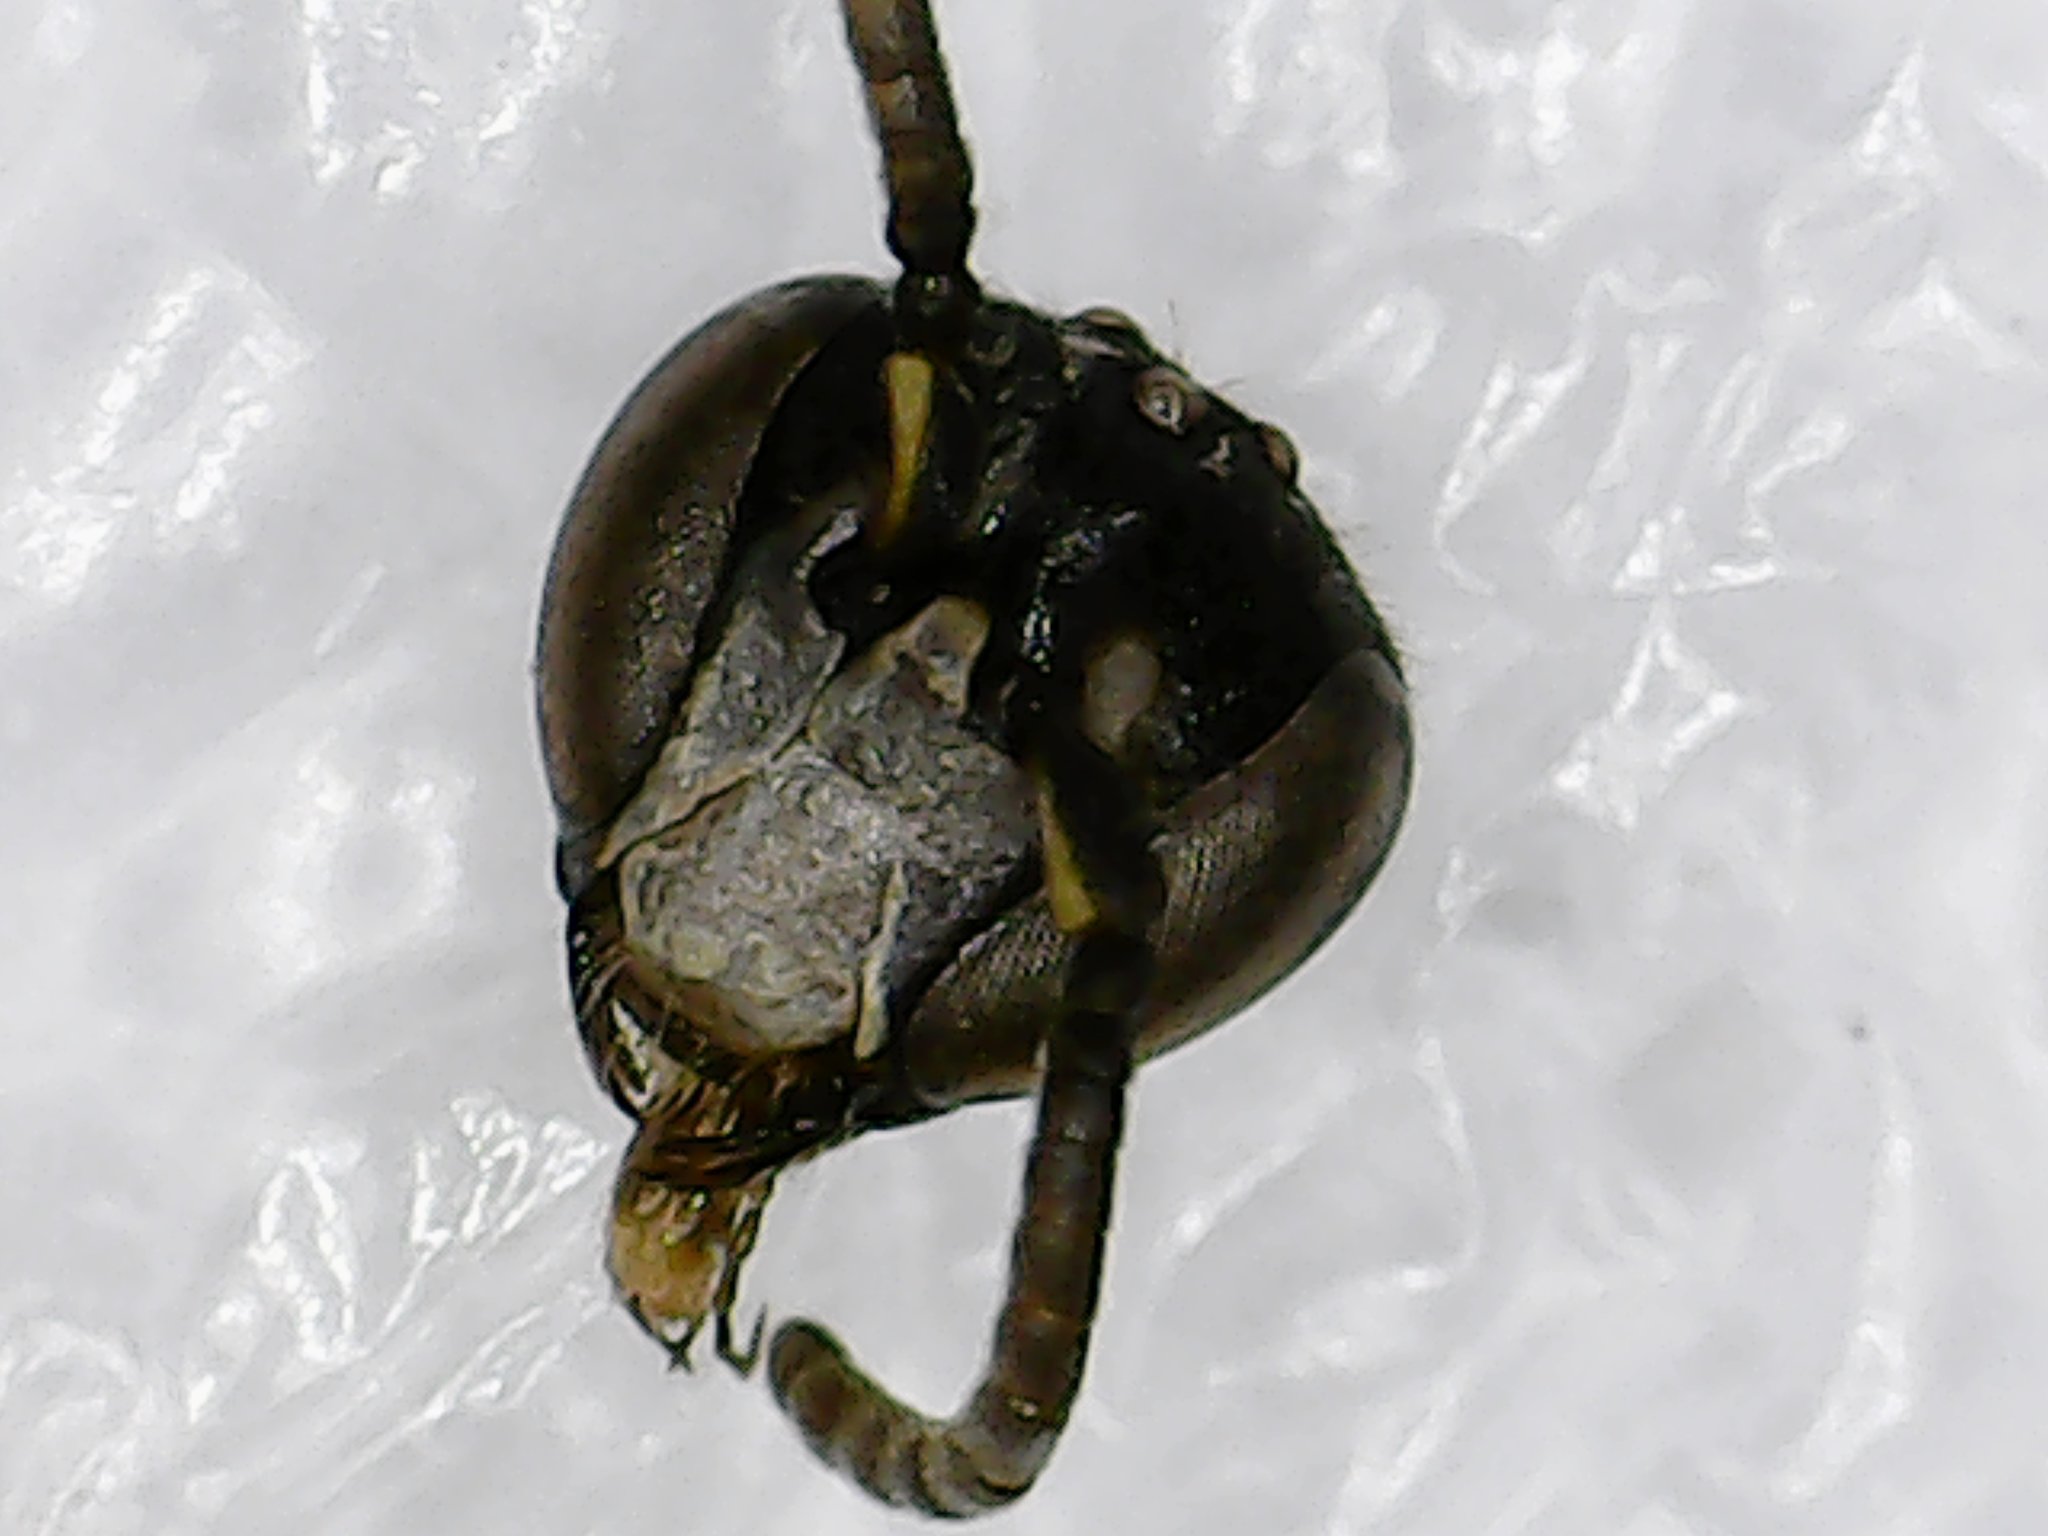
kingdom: Animalia
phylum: Arthropoda
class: Insecta
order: Hymenoptera
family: Colletidae
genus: Hylaeus
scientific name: Hylaeus mesillae
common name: Mesilla masked bee
